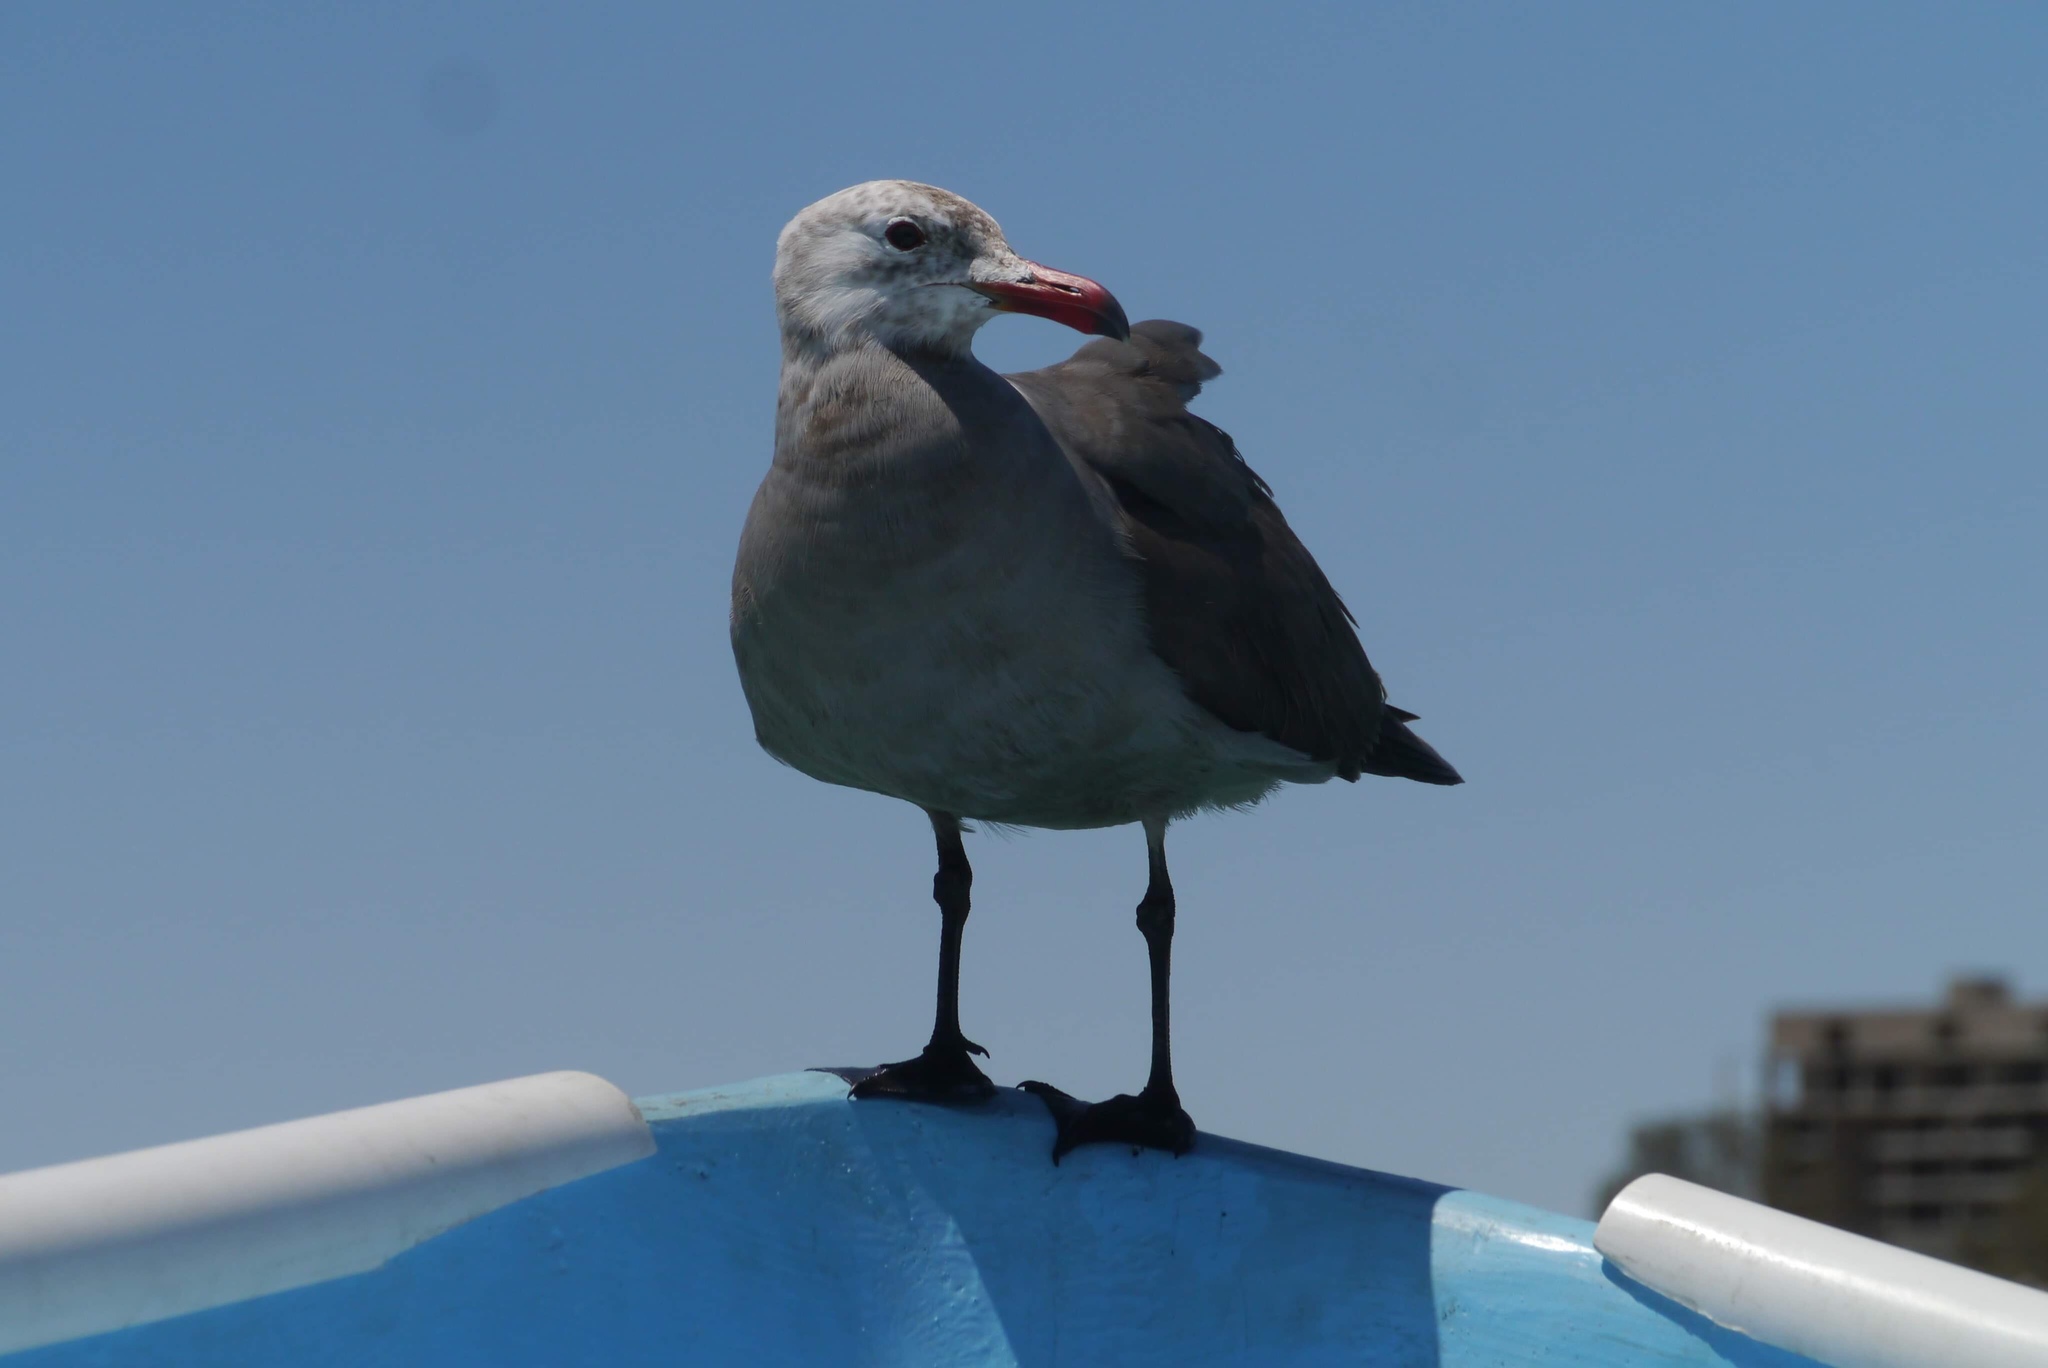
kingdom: Animalia
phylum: Chordata
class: Aves
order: Charadriiformes
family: Laridae
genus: Larus
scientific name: Larus heermanni
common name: Heermann's gull
